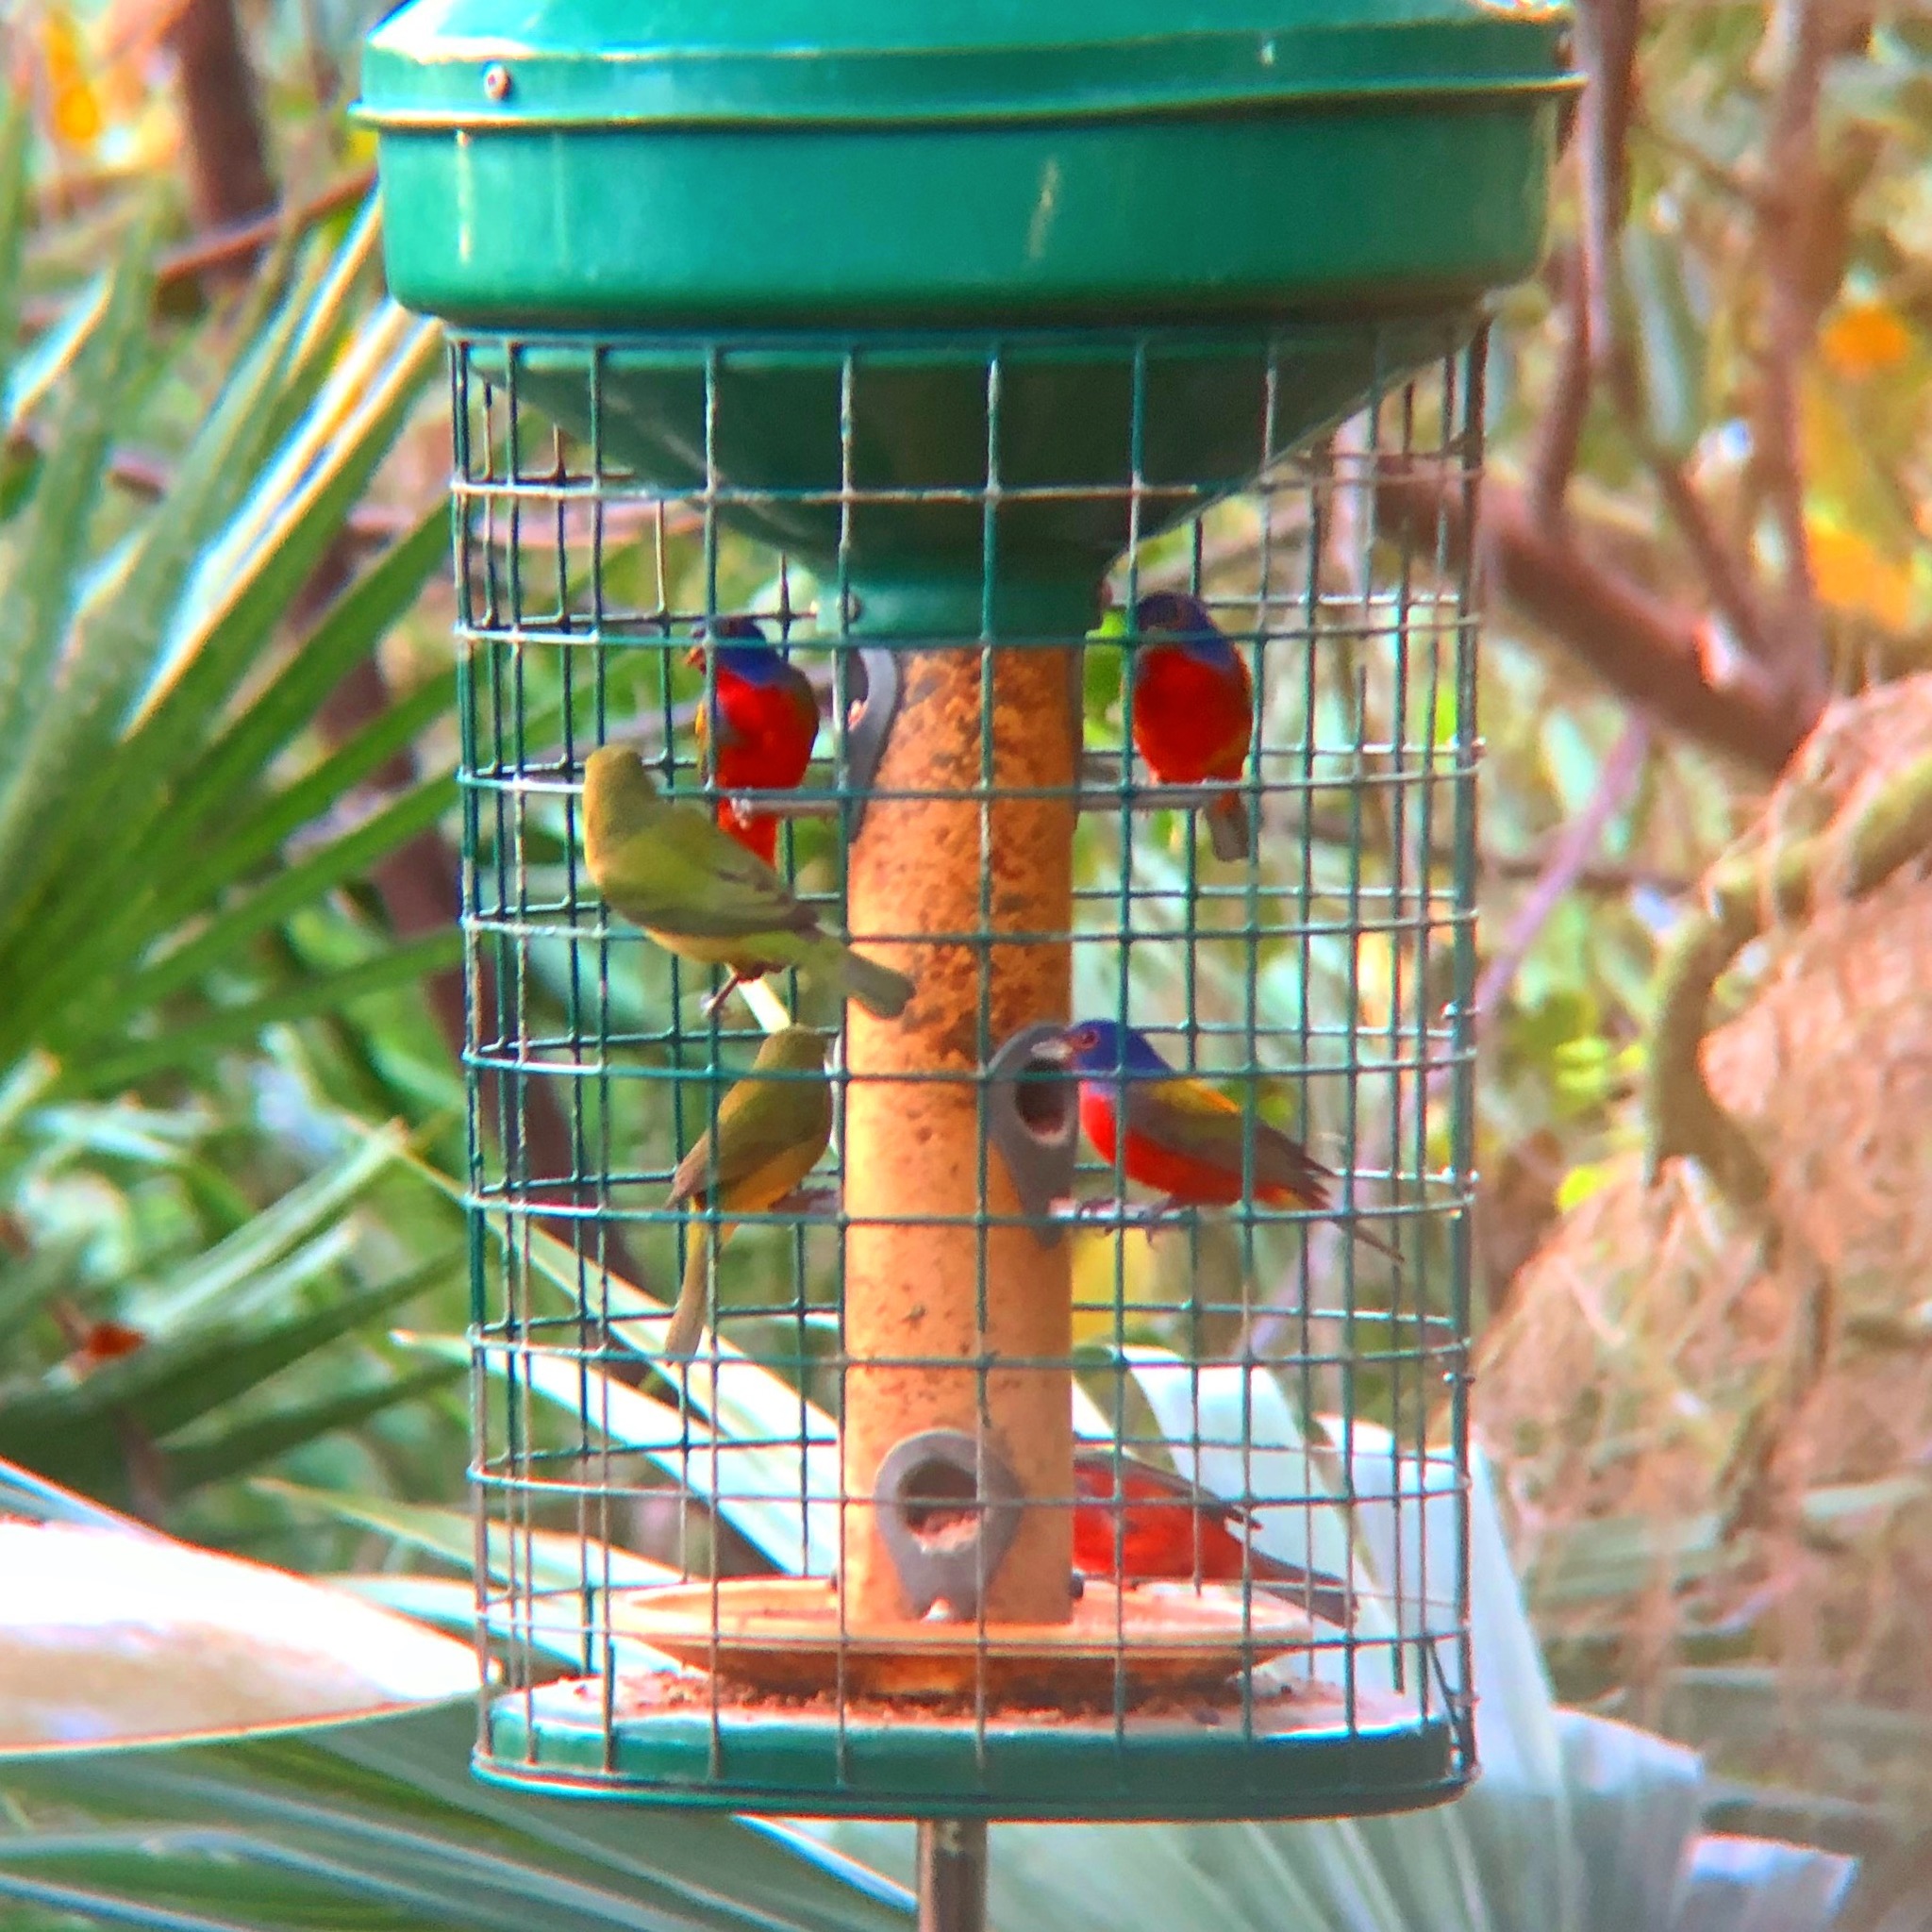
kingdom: Animalia
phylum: Chordata
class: Aves
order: Passeriformes
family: Cardinalidae
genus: Passerina
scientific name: Passerina ciris
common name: Painted bunting
